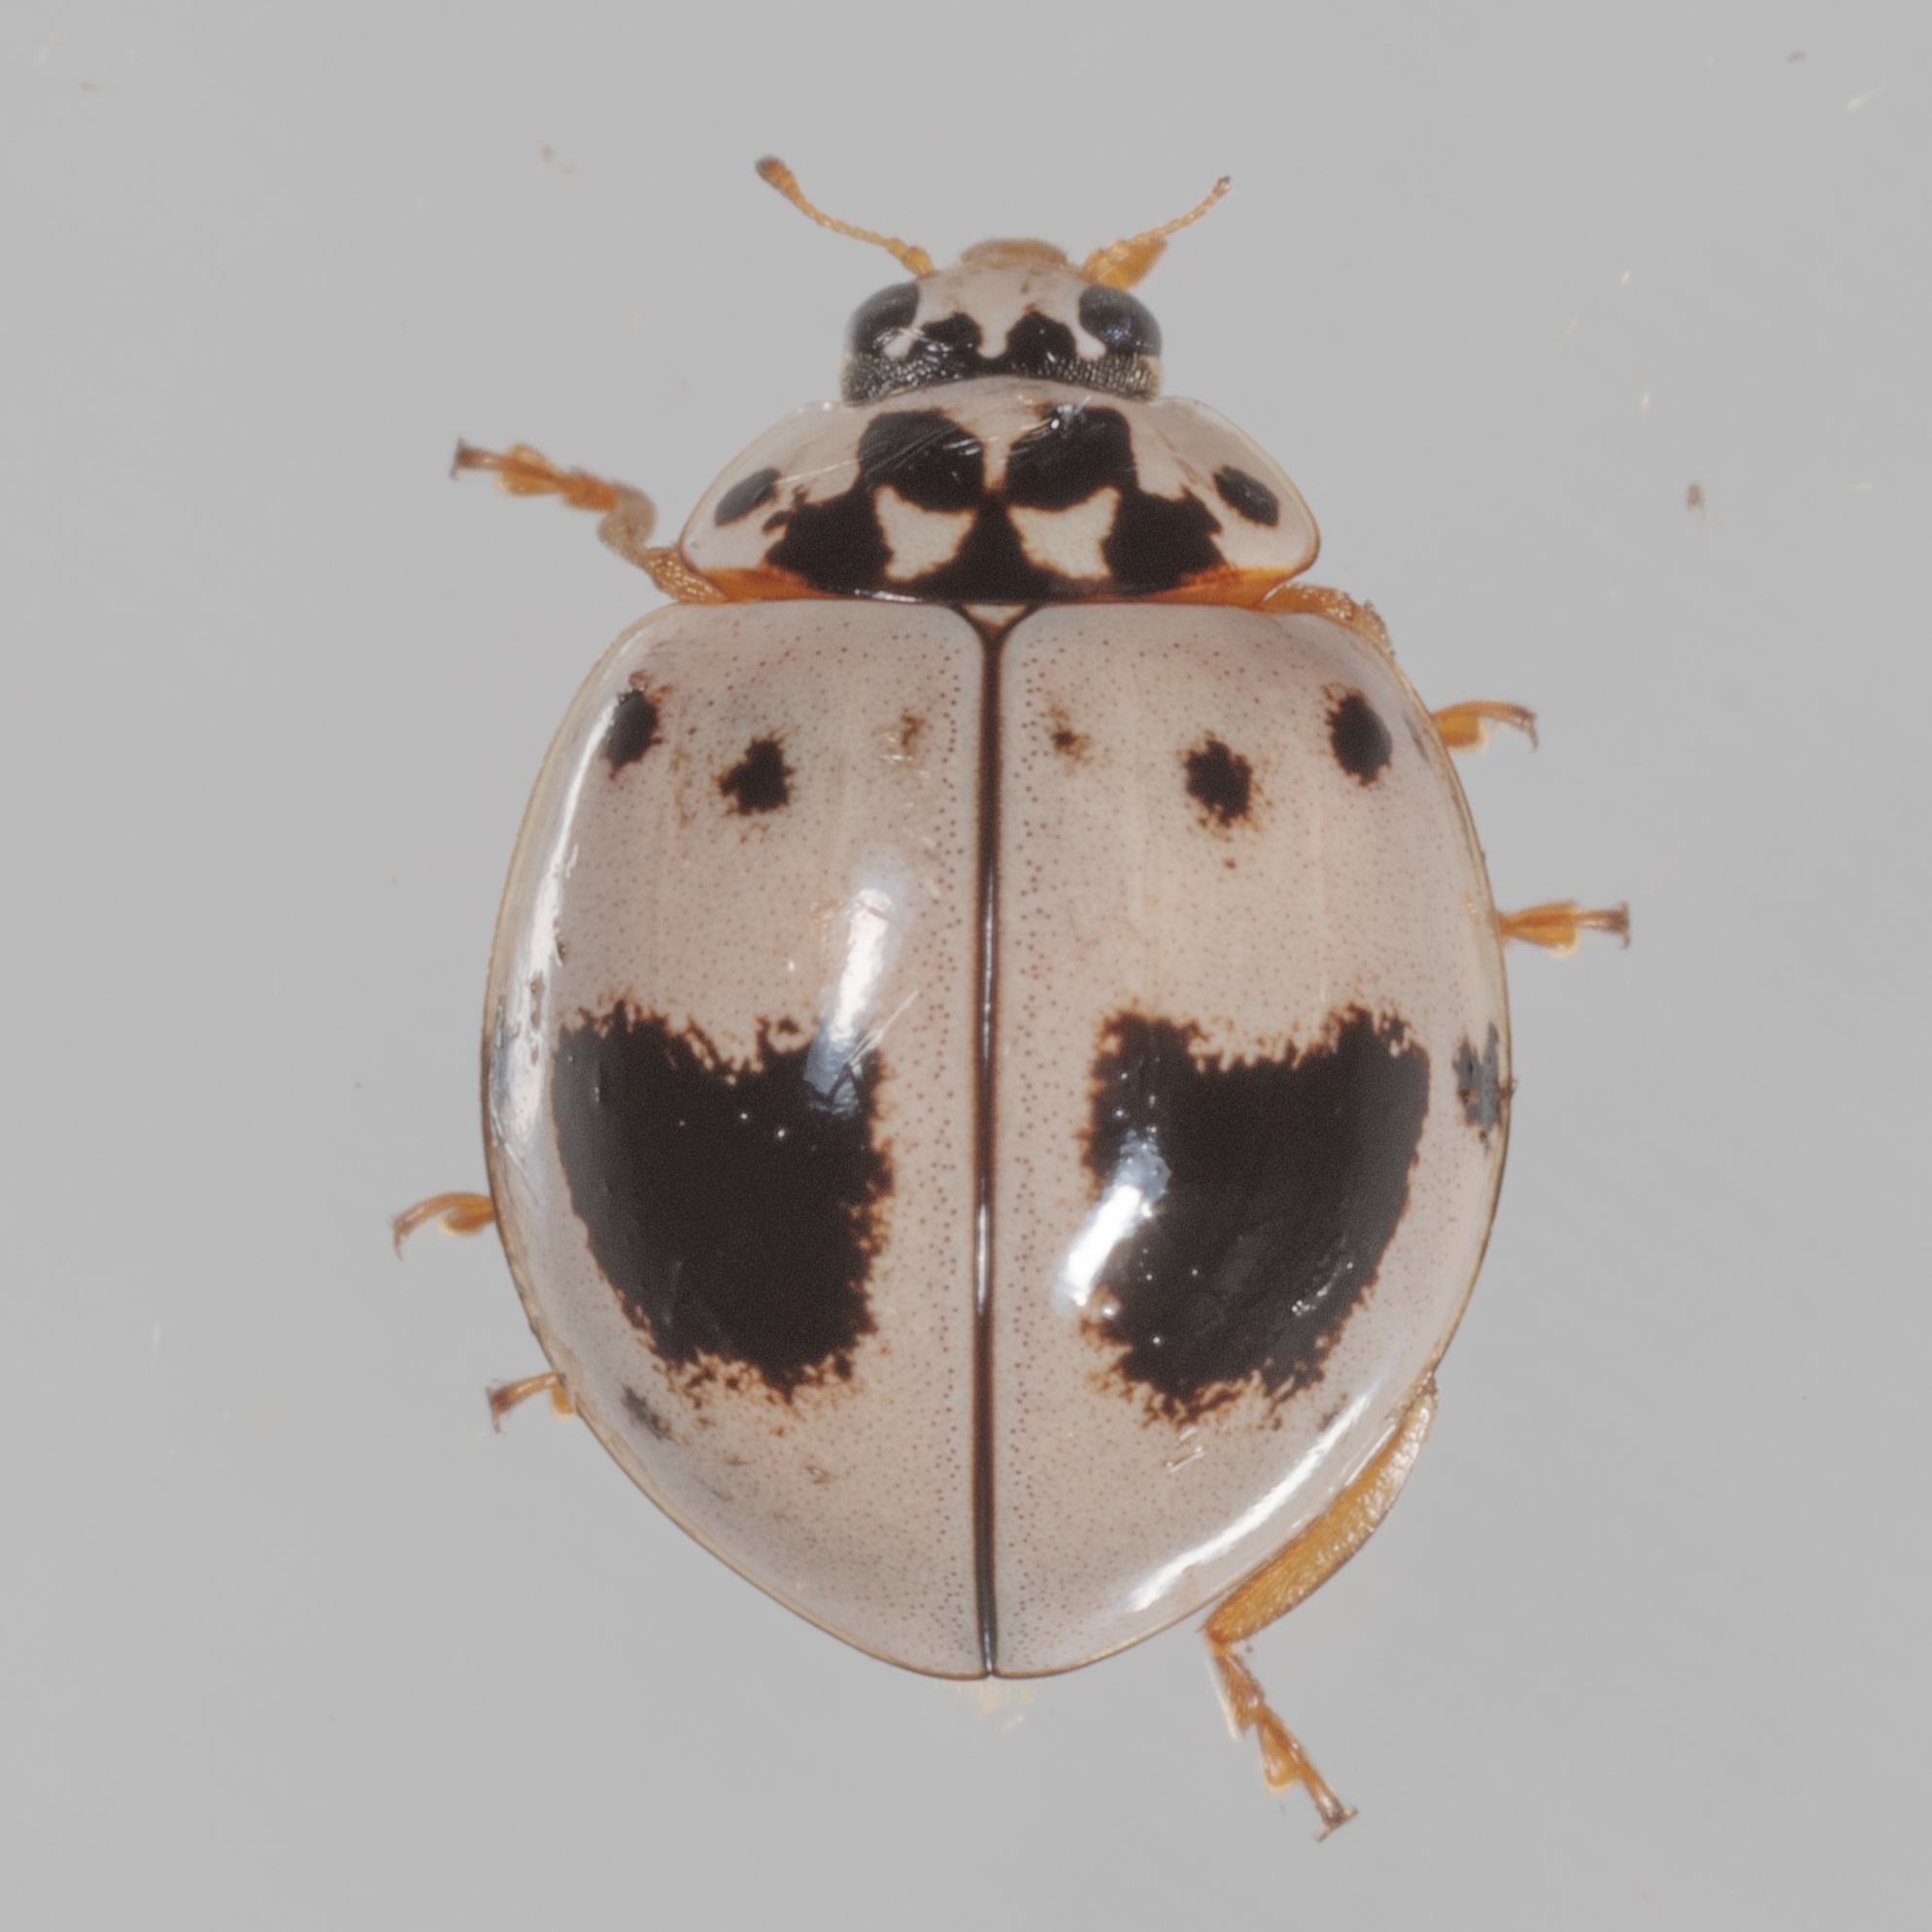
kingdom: Animalia
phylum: Arthropoda
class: Insecta
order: Coleoptera
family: Coccinellidae
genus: Olla
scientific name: Olla v-nigrum
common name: Ashy gray lady beetle
